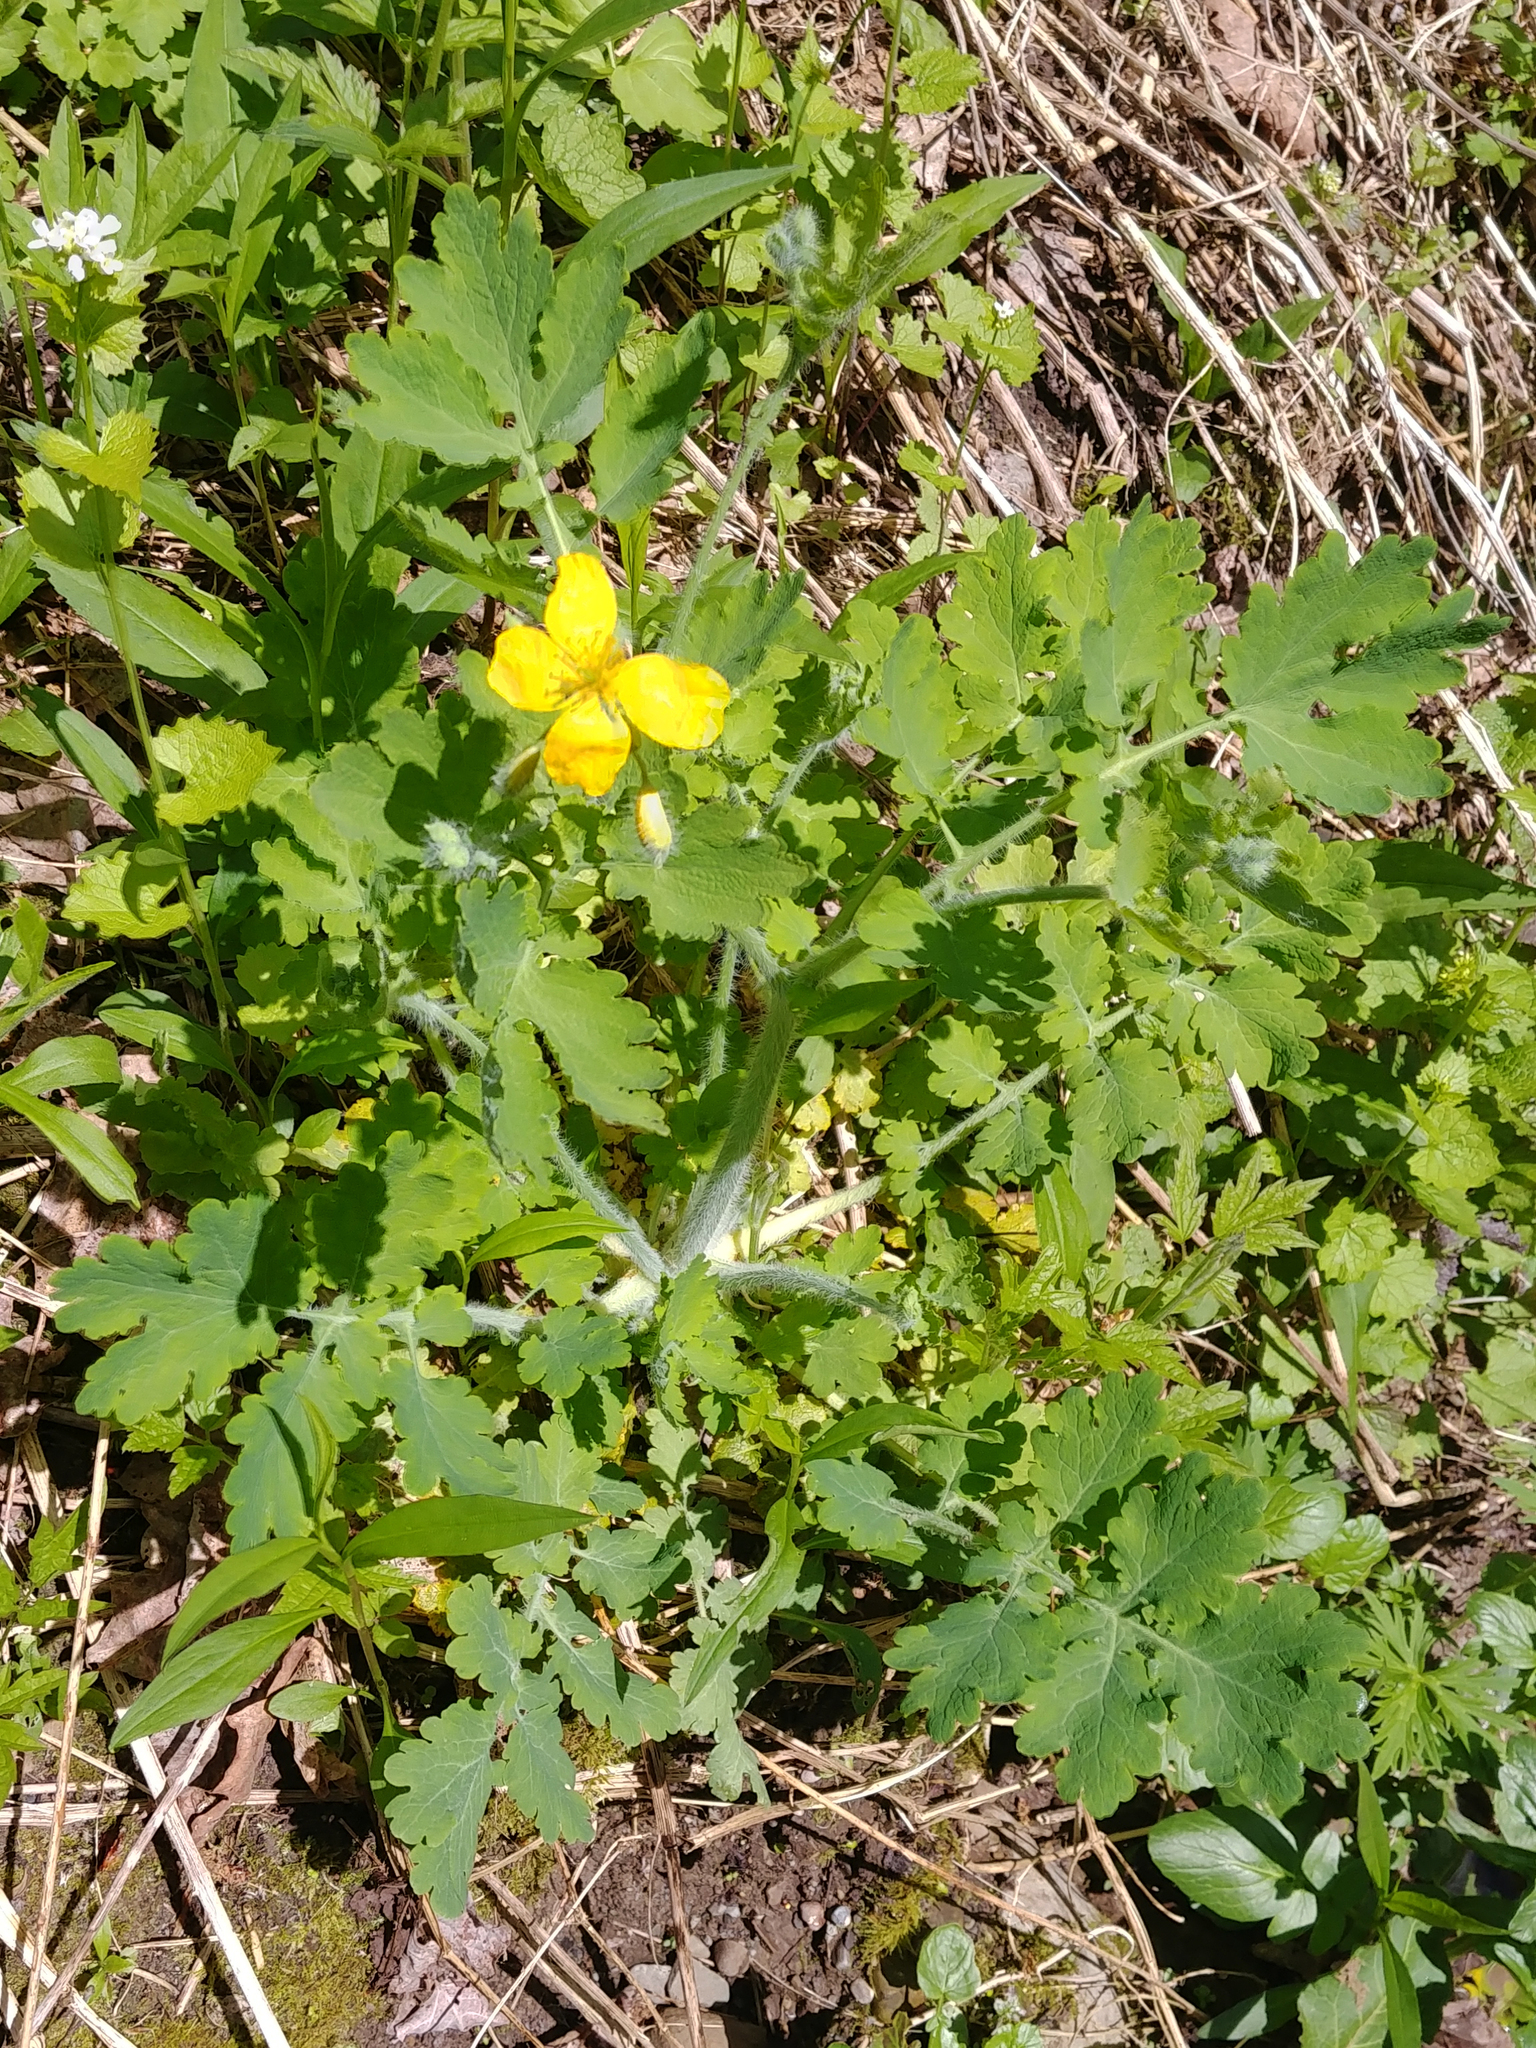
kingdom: Plantae
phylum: Tracheophyta
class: Magnoliopsida
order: Ranunculales
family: Papaveraceae
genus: Chelidonium
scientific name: Chelidonium majus
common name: Greater celandine
